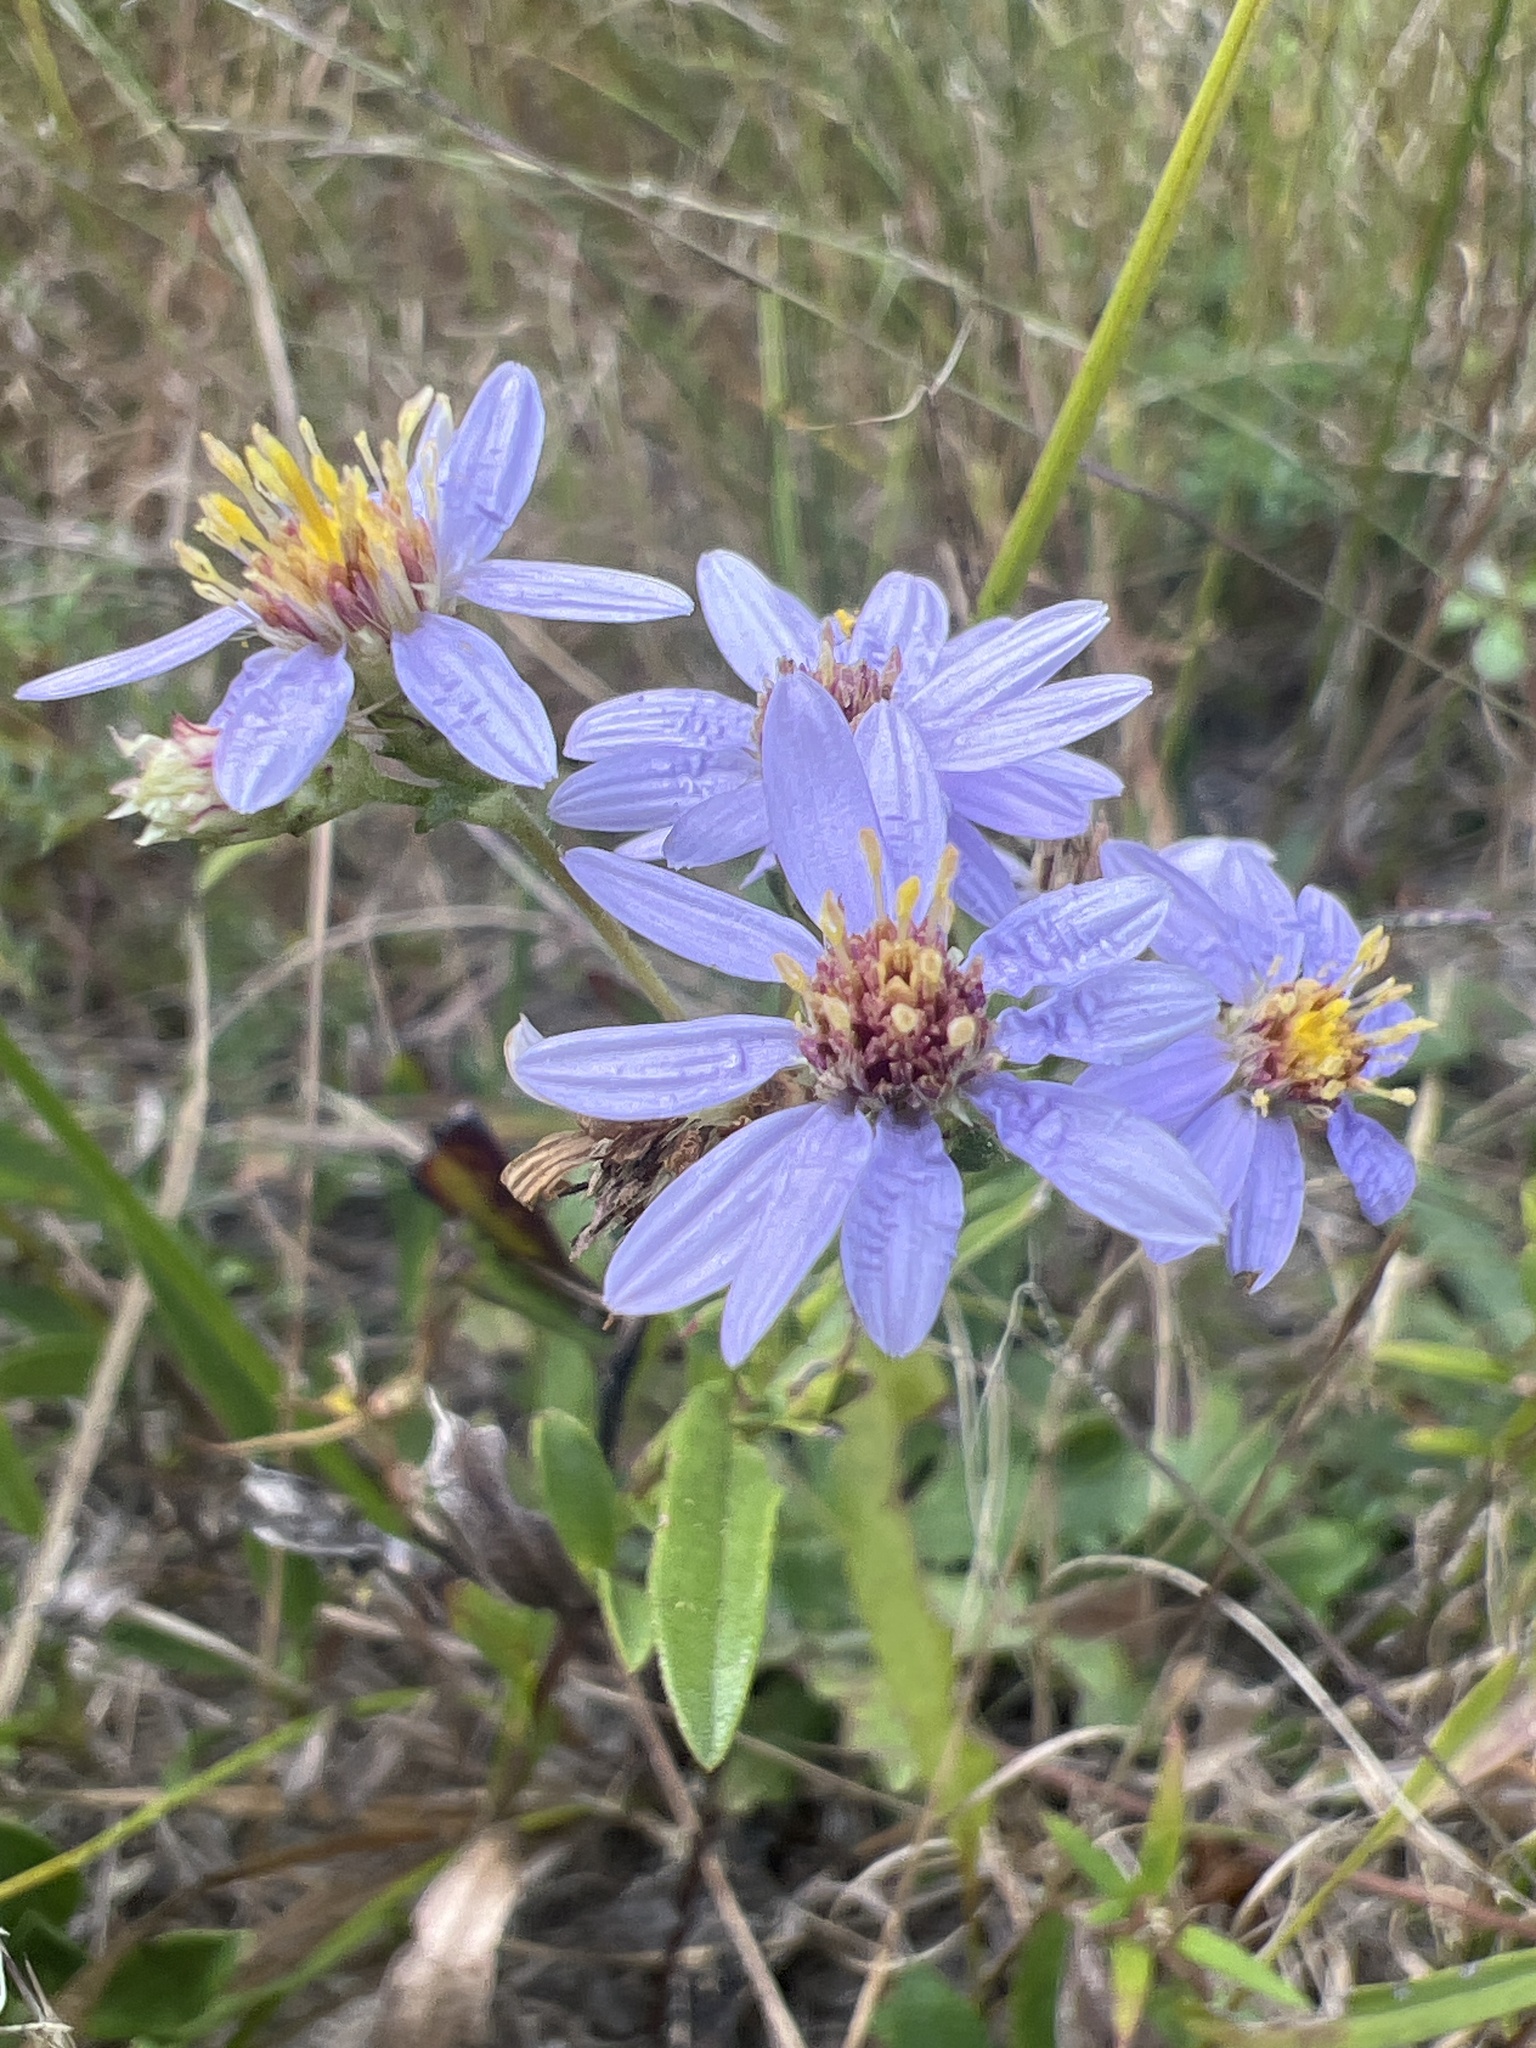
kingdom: Plantae
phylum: Tracheophyta
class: Magnoliopsida
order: Asterales
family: Asteraceae
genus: Eurybia
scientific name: Eurybia compacta
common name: Slender aster
